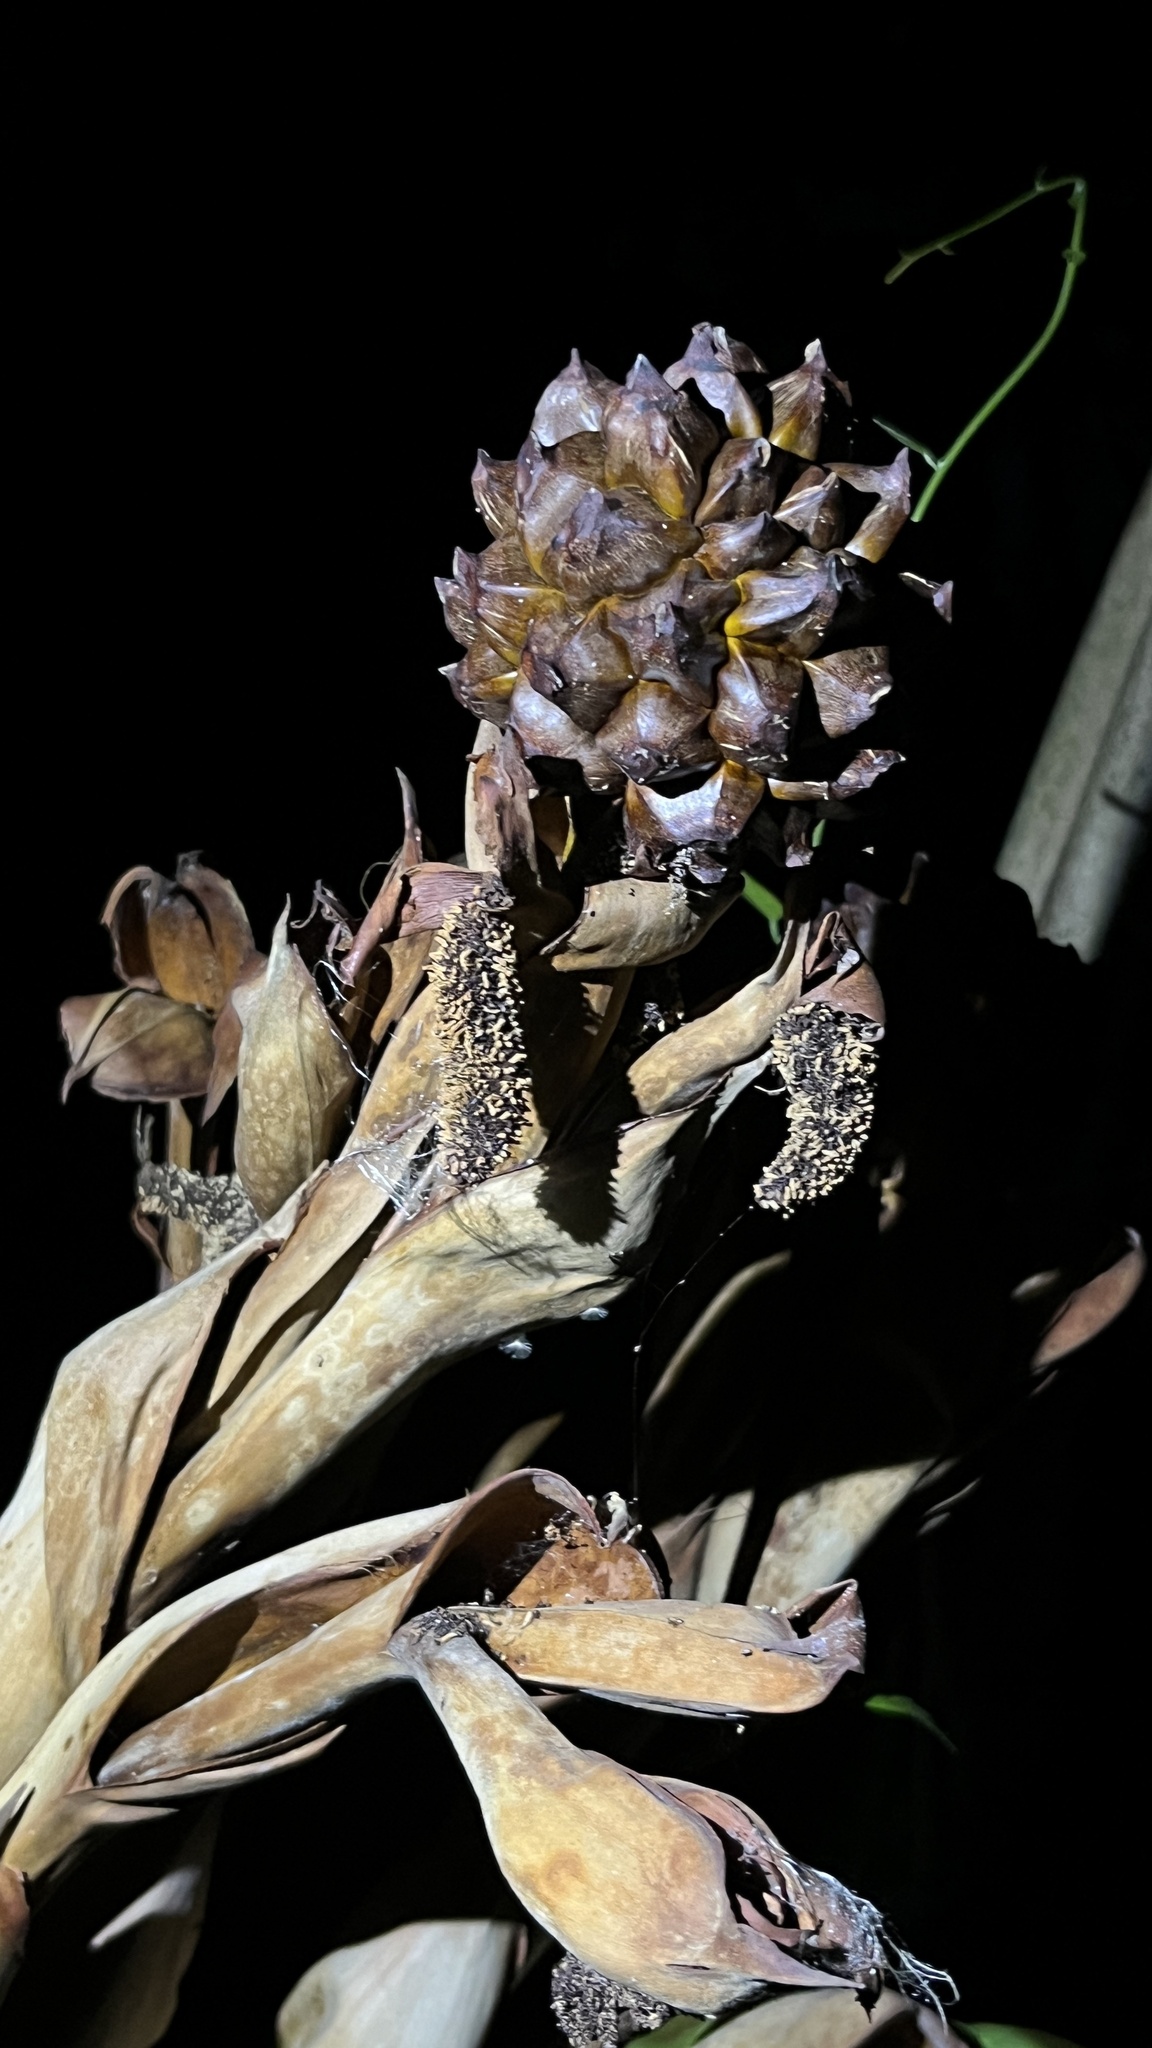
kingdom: Plantae
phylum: Tracheophyta
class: Liliopsida
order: Arecales
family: Arecaceae
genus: Nypa
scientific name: Nypa fruticans
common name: Mangrove palm
